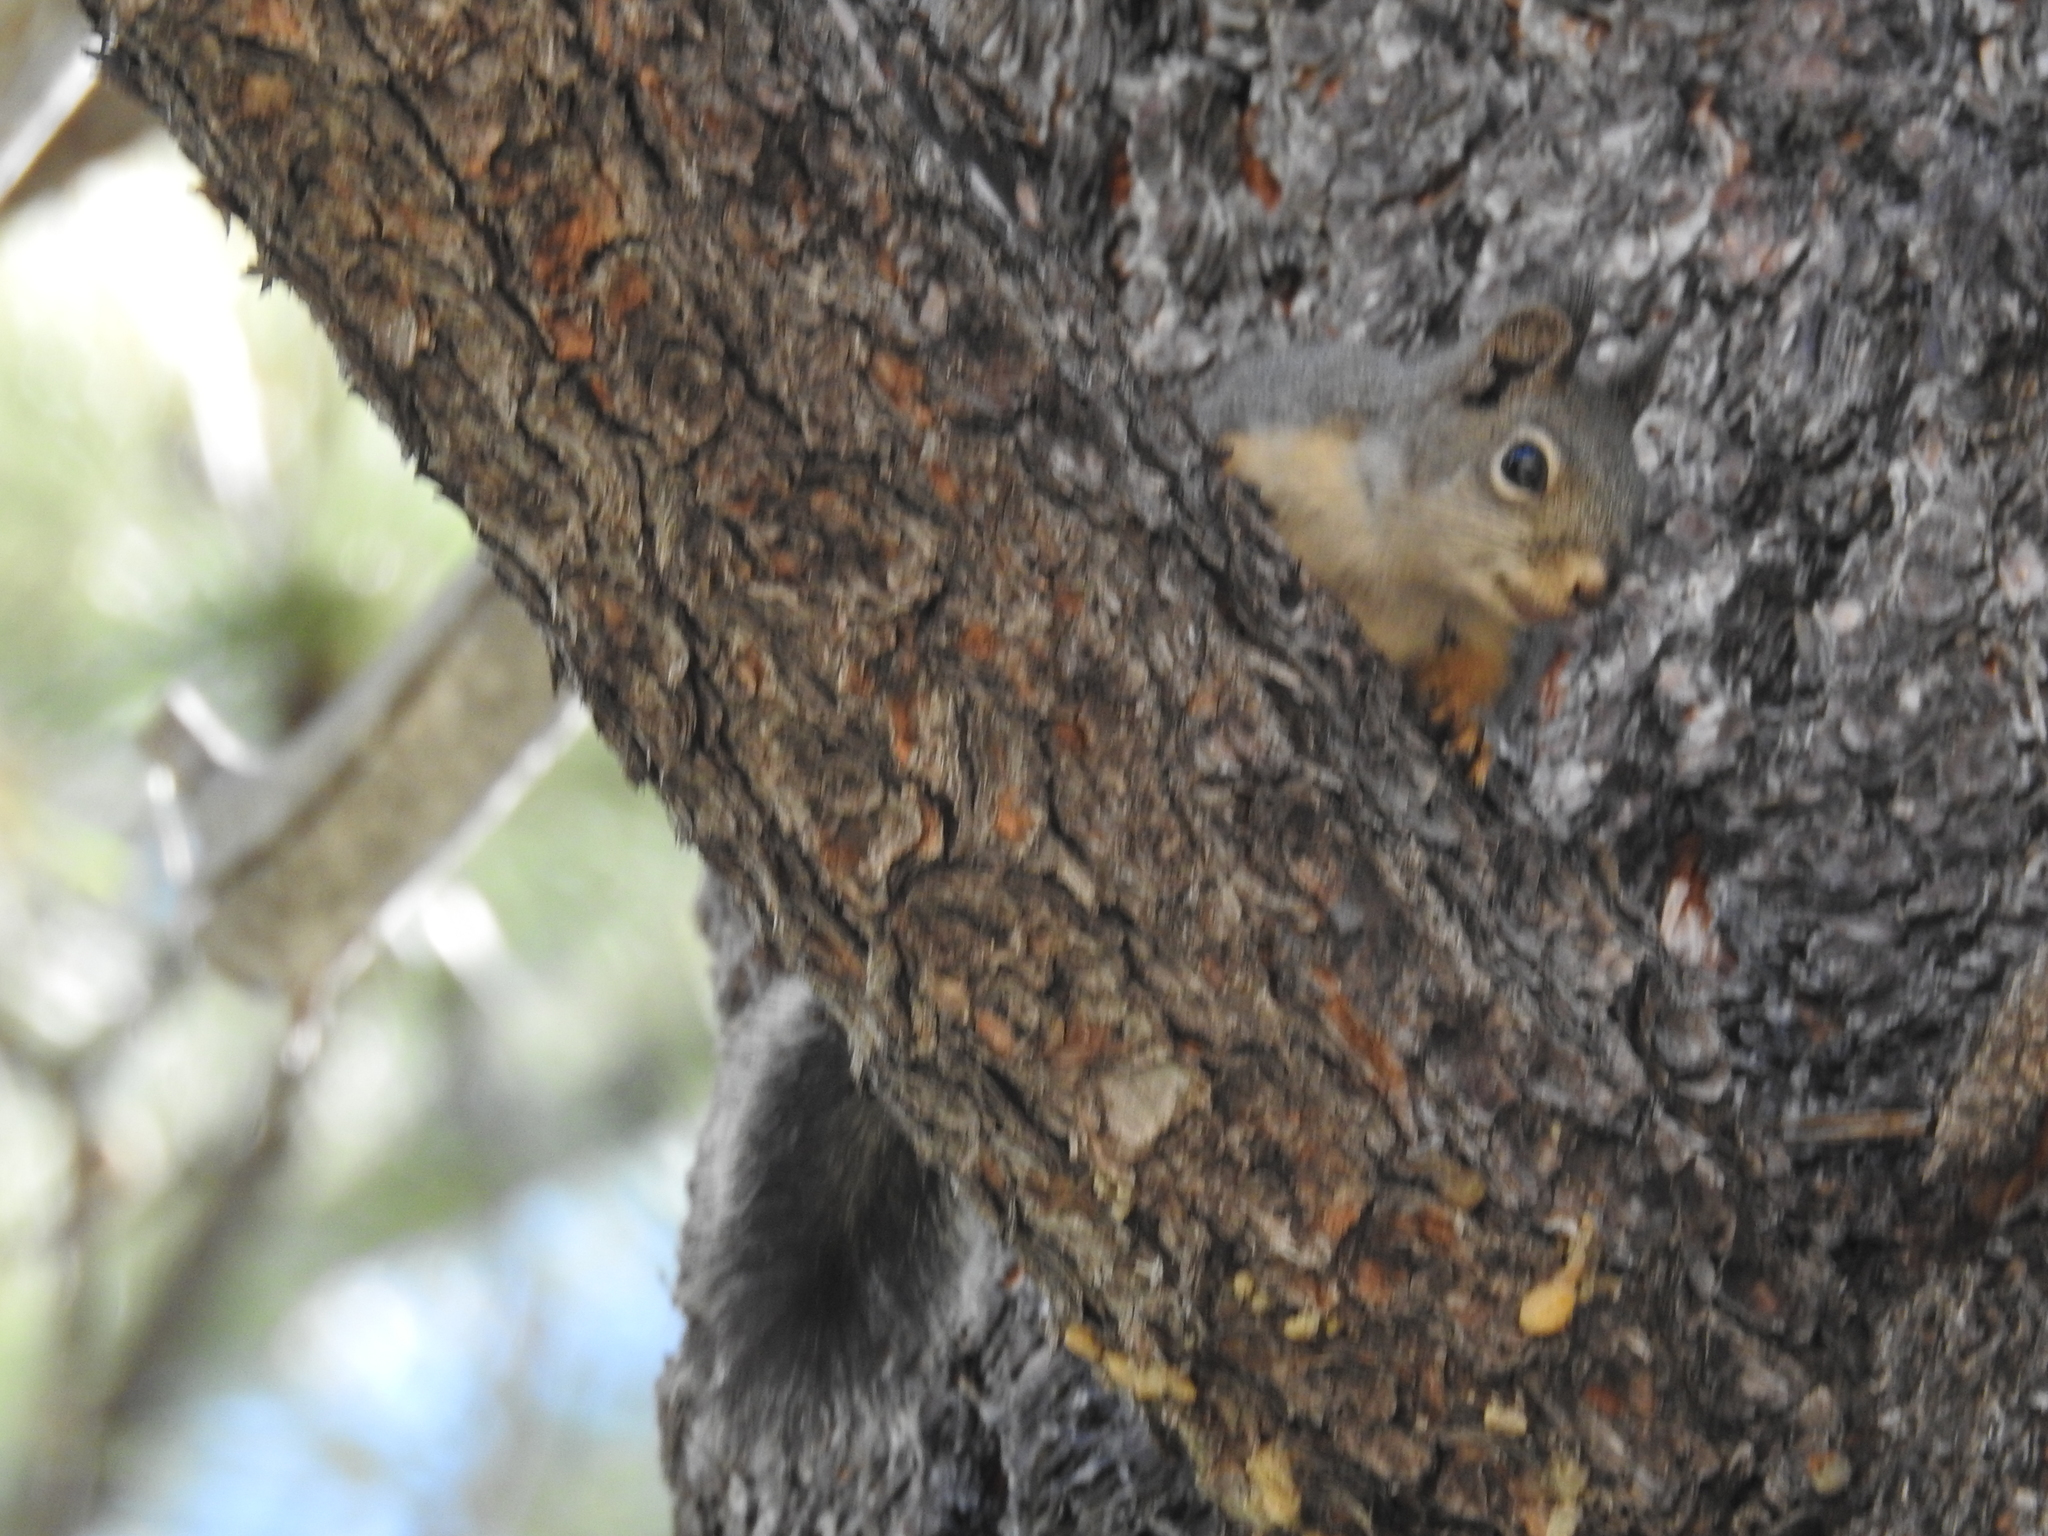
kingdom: Animalia
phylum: Chordata
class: Mammalia
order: Rodentia
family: Sciuridae
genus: Tamiasciurus
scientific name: Tamiasciurus douglasii
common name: Douglas's squirrel
